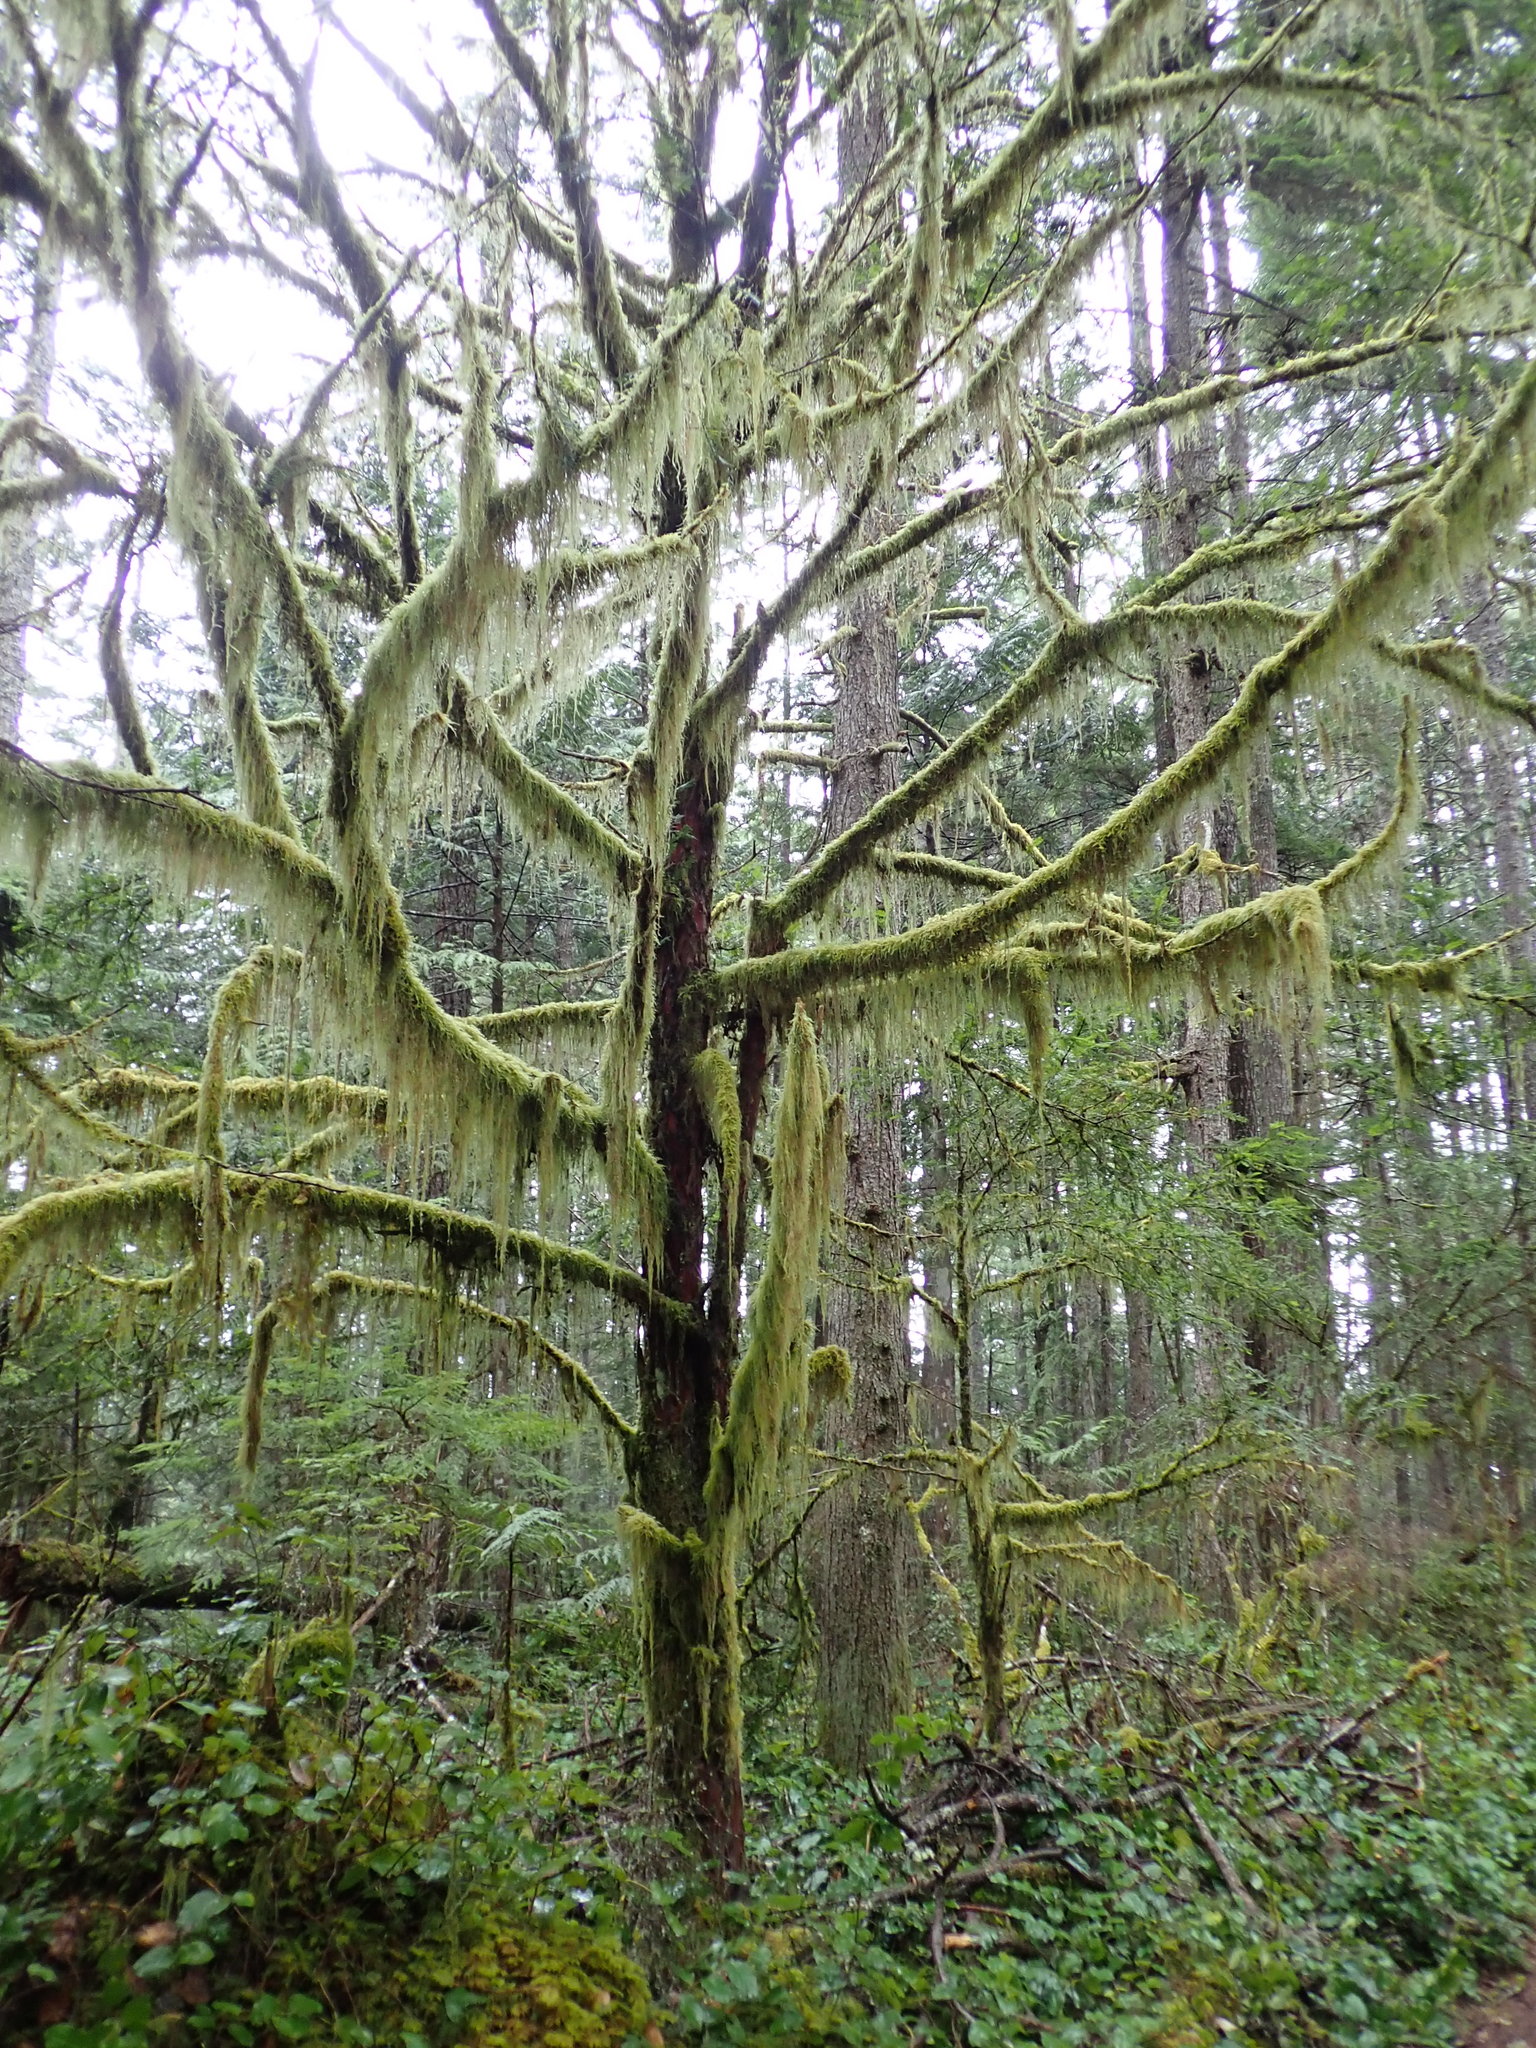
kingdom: Plantae
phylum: Tracheophyta
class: Pinopsida
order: Pinales
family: Taxaceae
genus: Taxus
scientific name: Taxus brevifolia
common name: Pacific yew
